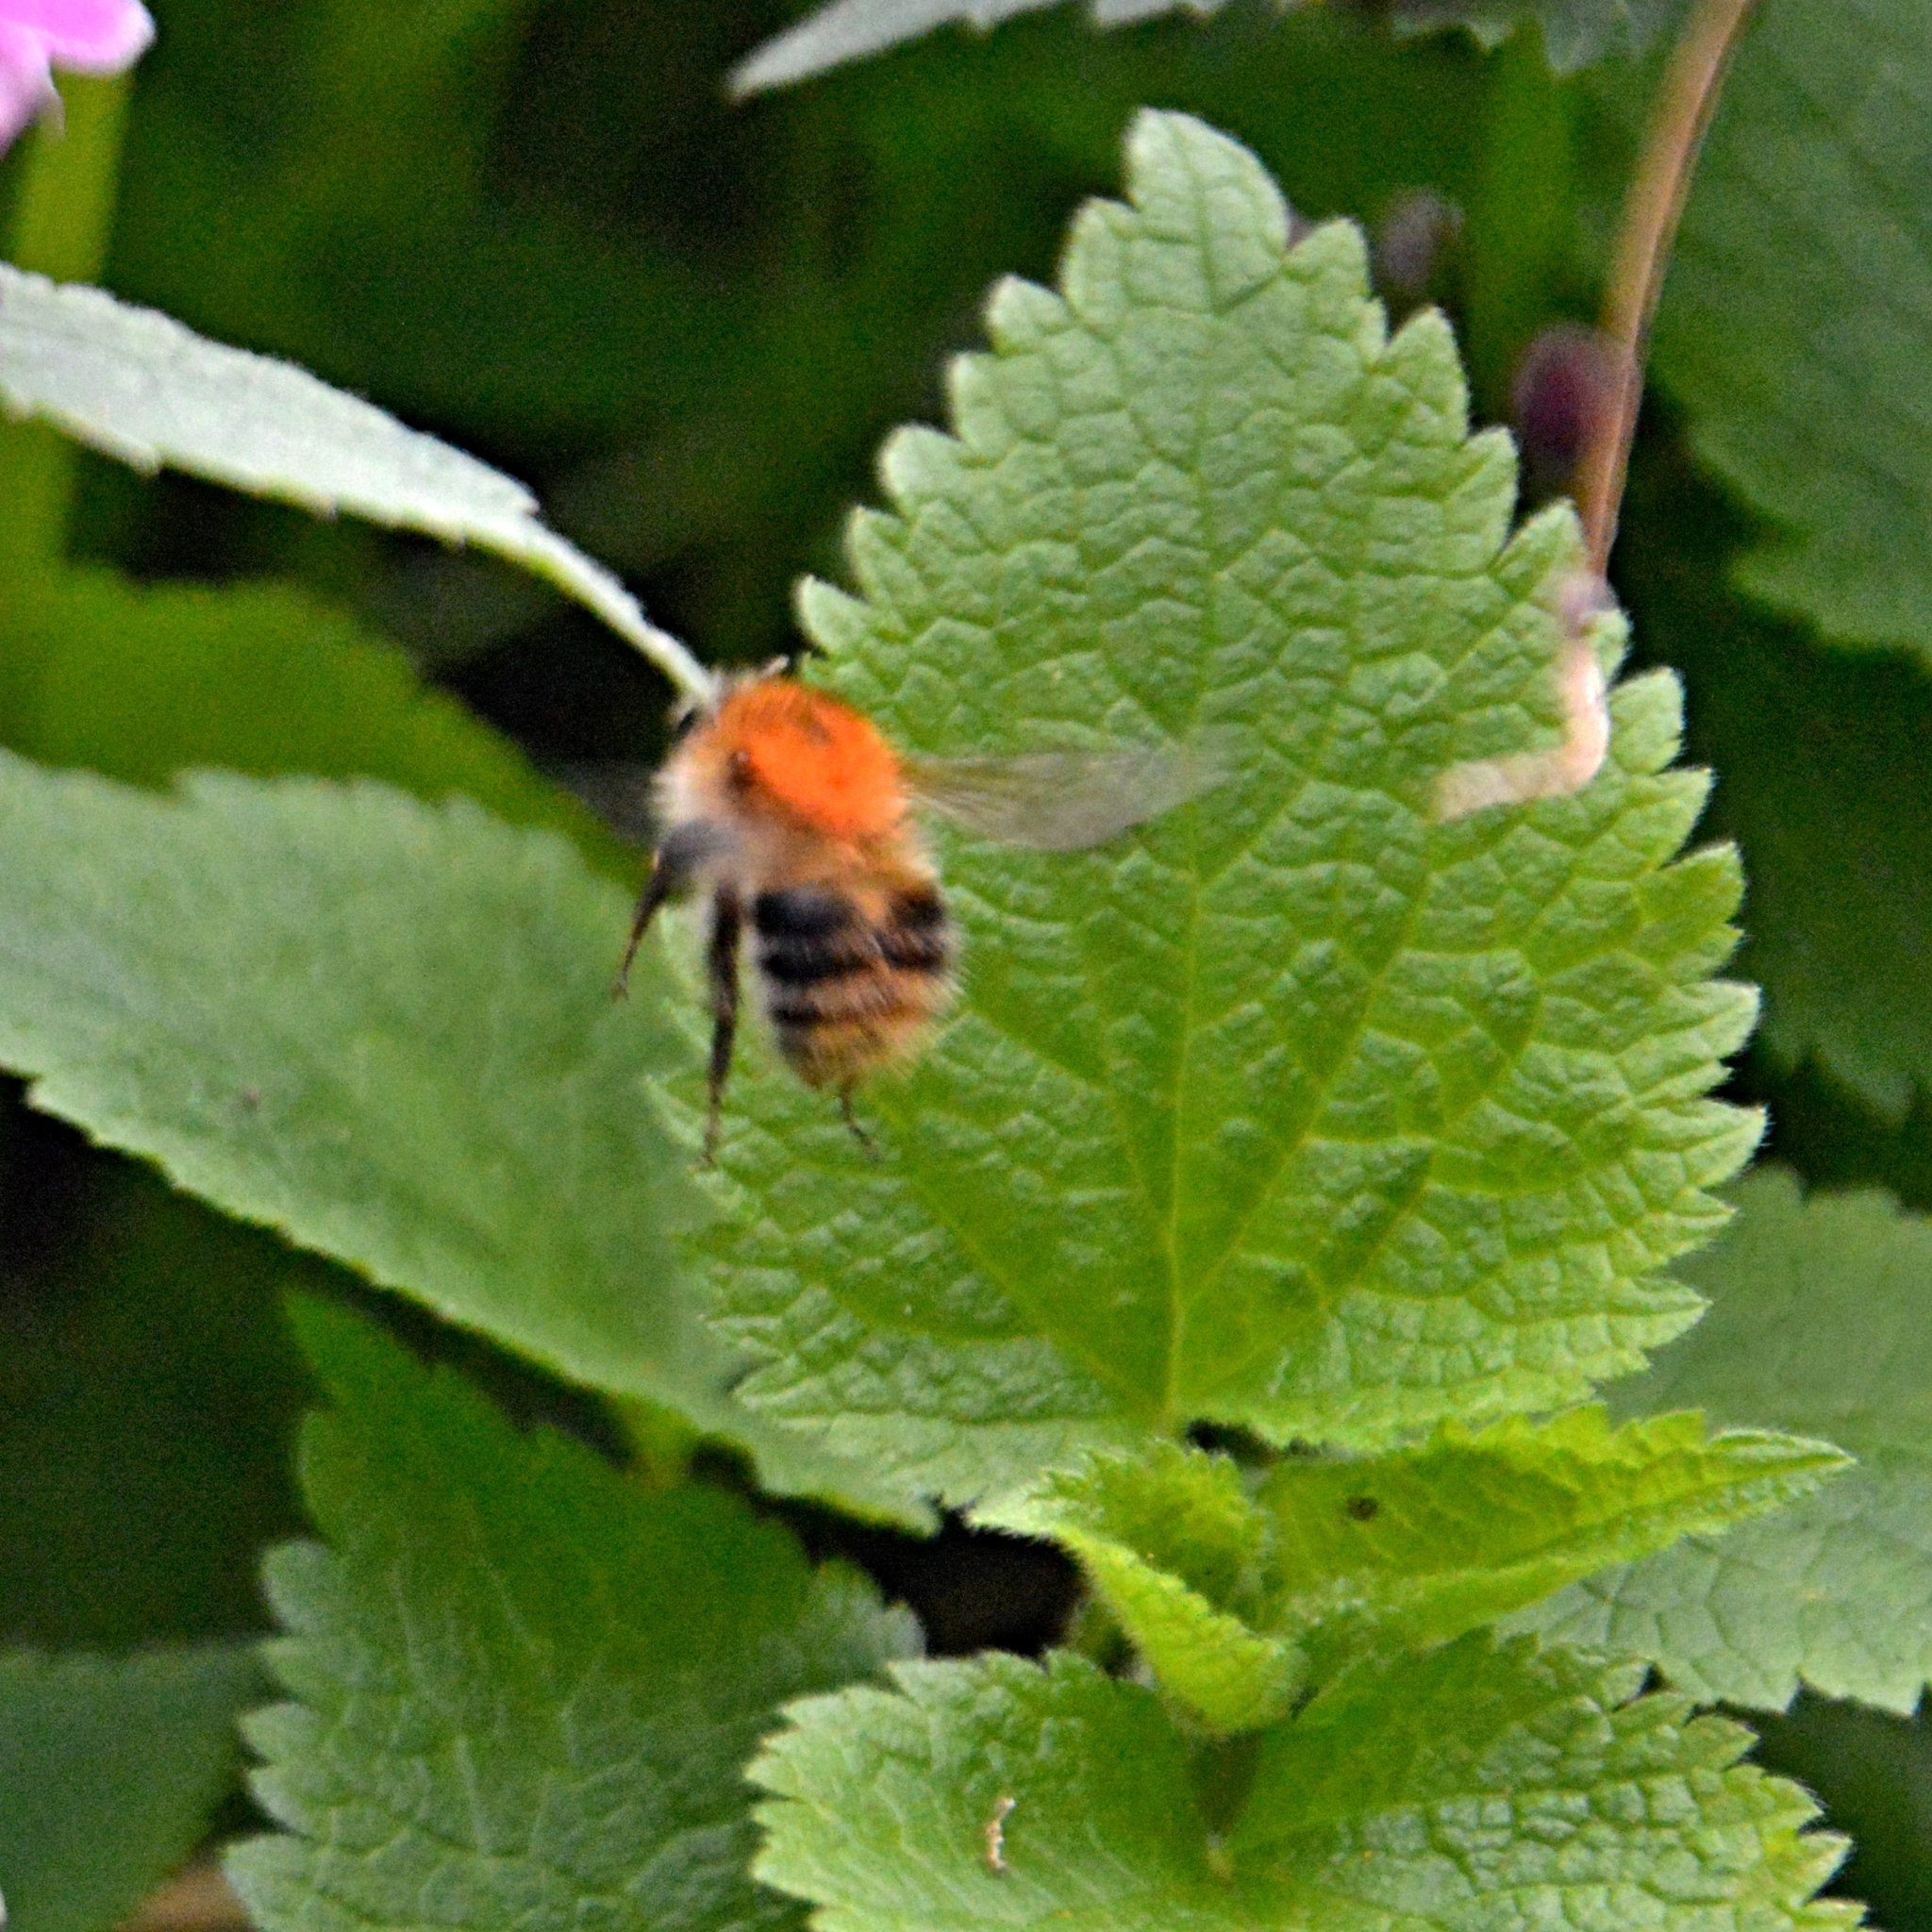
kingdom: Animalia
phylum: Arthropoda
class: Insecta
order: Hymenoptera
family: Apidae
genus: Bombus
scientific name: Bombus pascuorum
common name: Common carder bee
